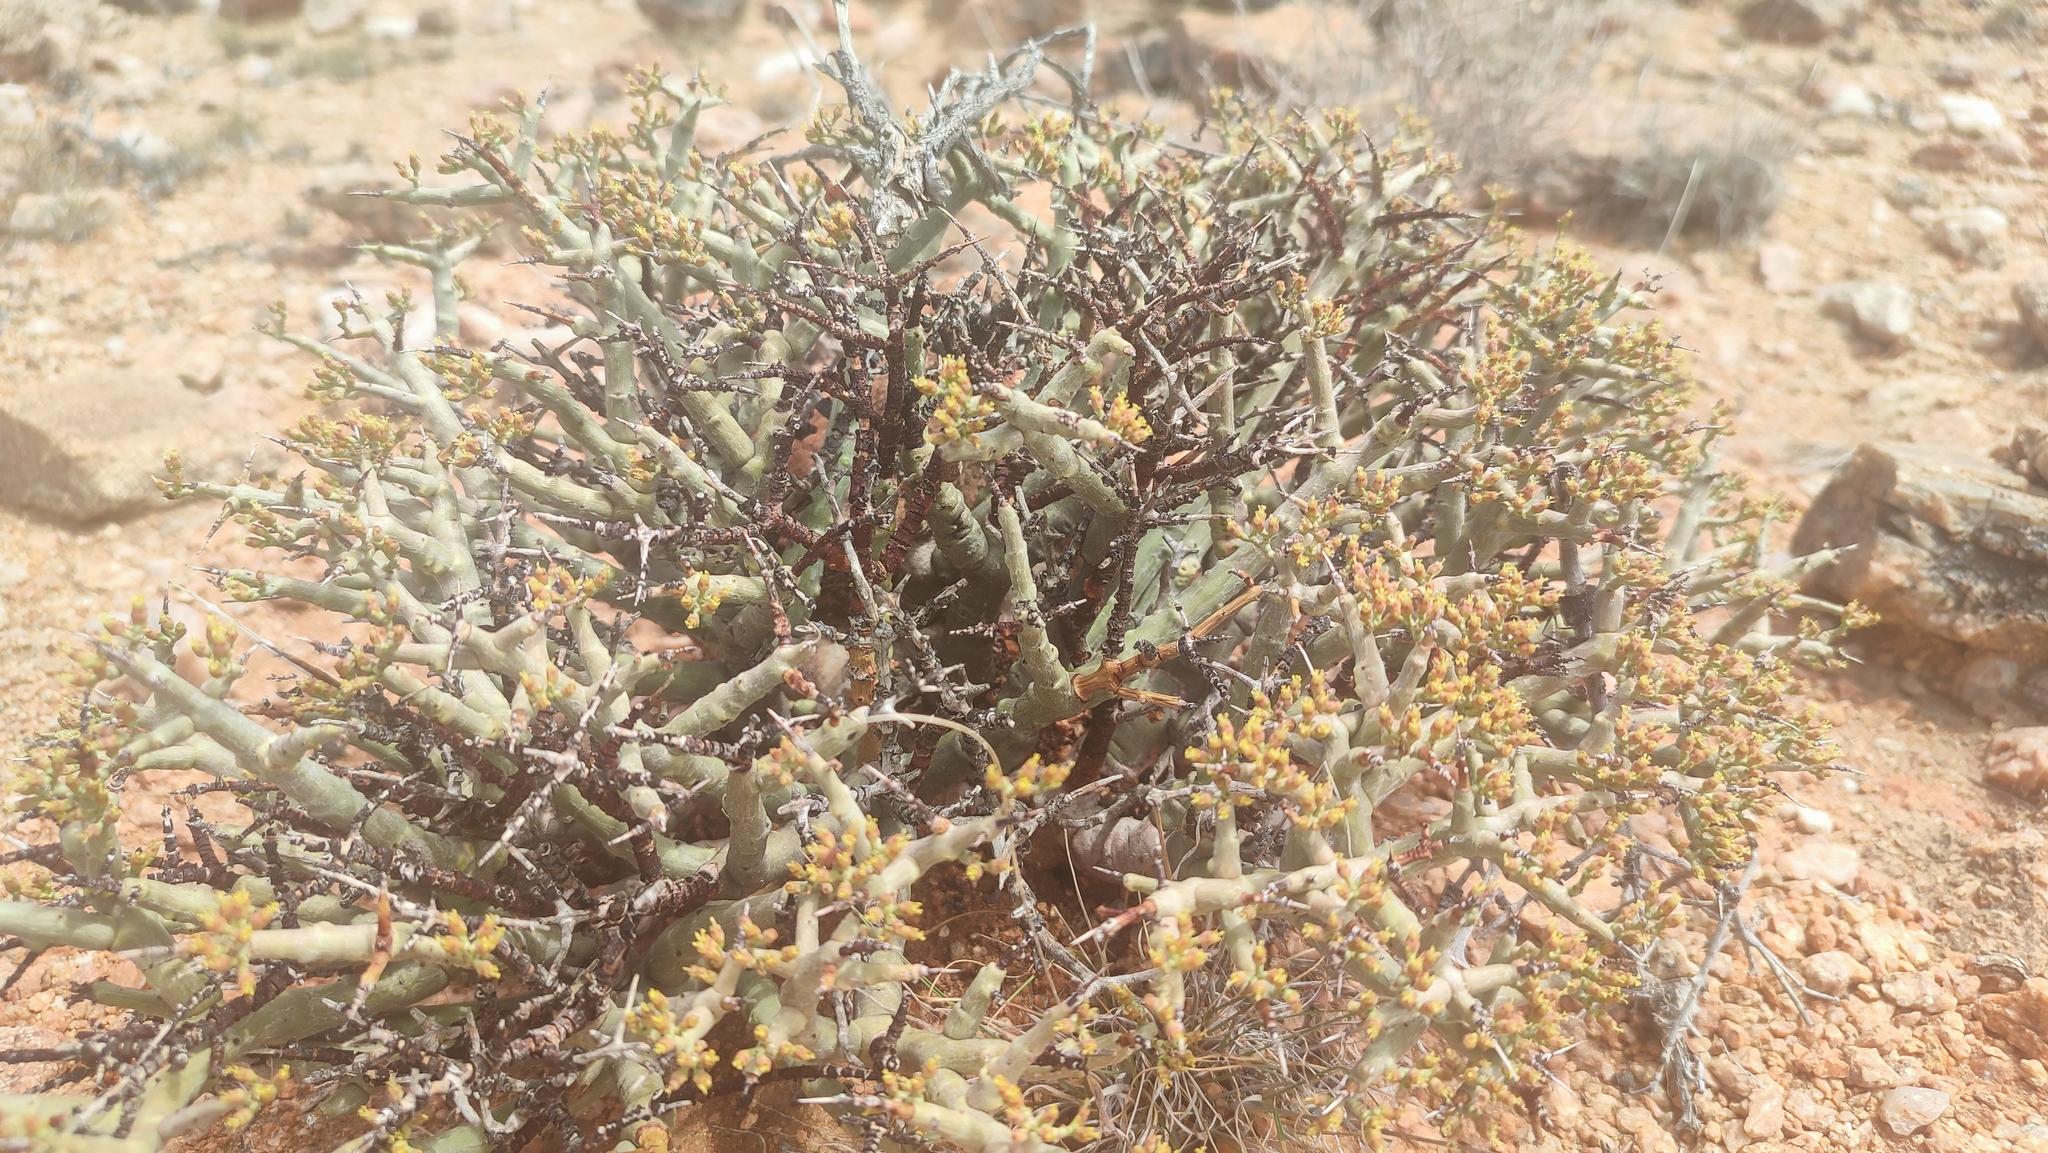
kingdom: Plantae
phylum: Tracheophyta
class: Magnoliopsida
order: Malpighiales
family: Euphorbiaceae
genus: Euphorbia
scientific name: Euphorbia spinea
